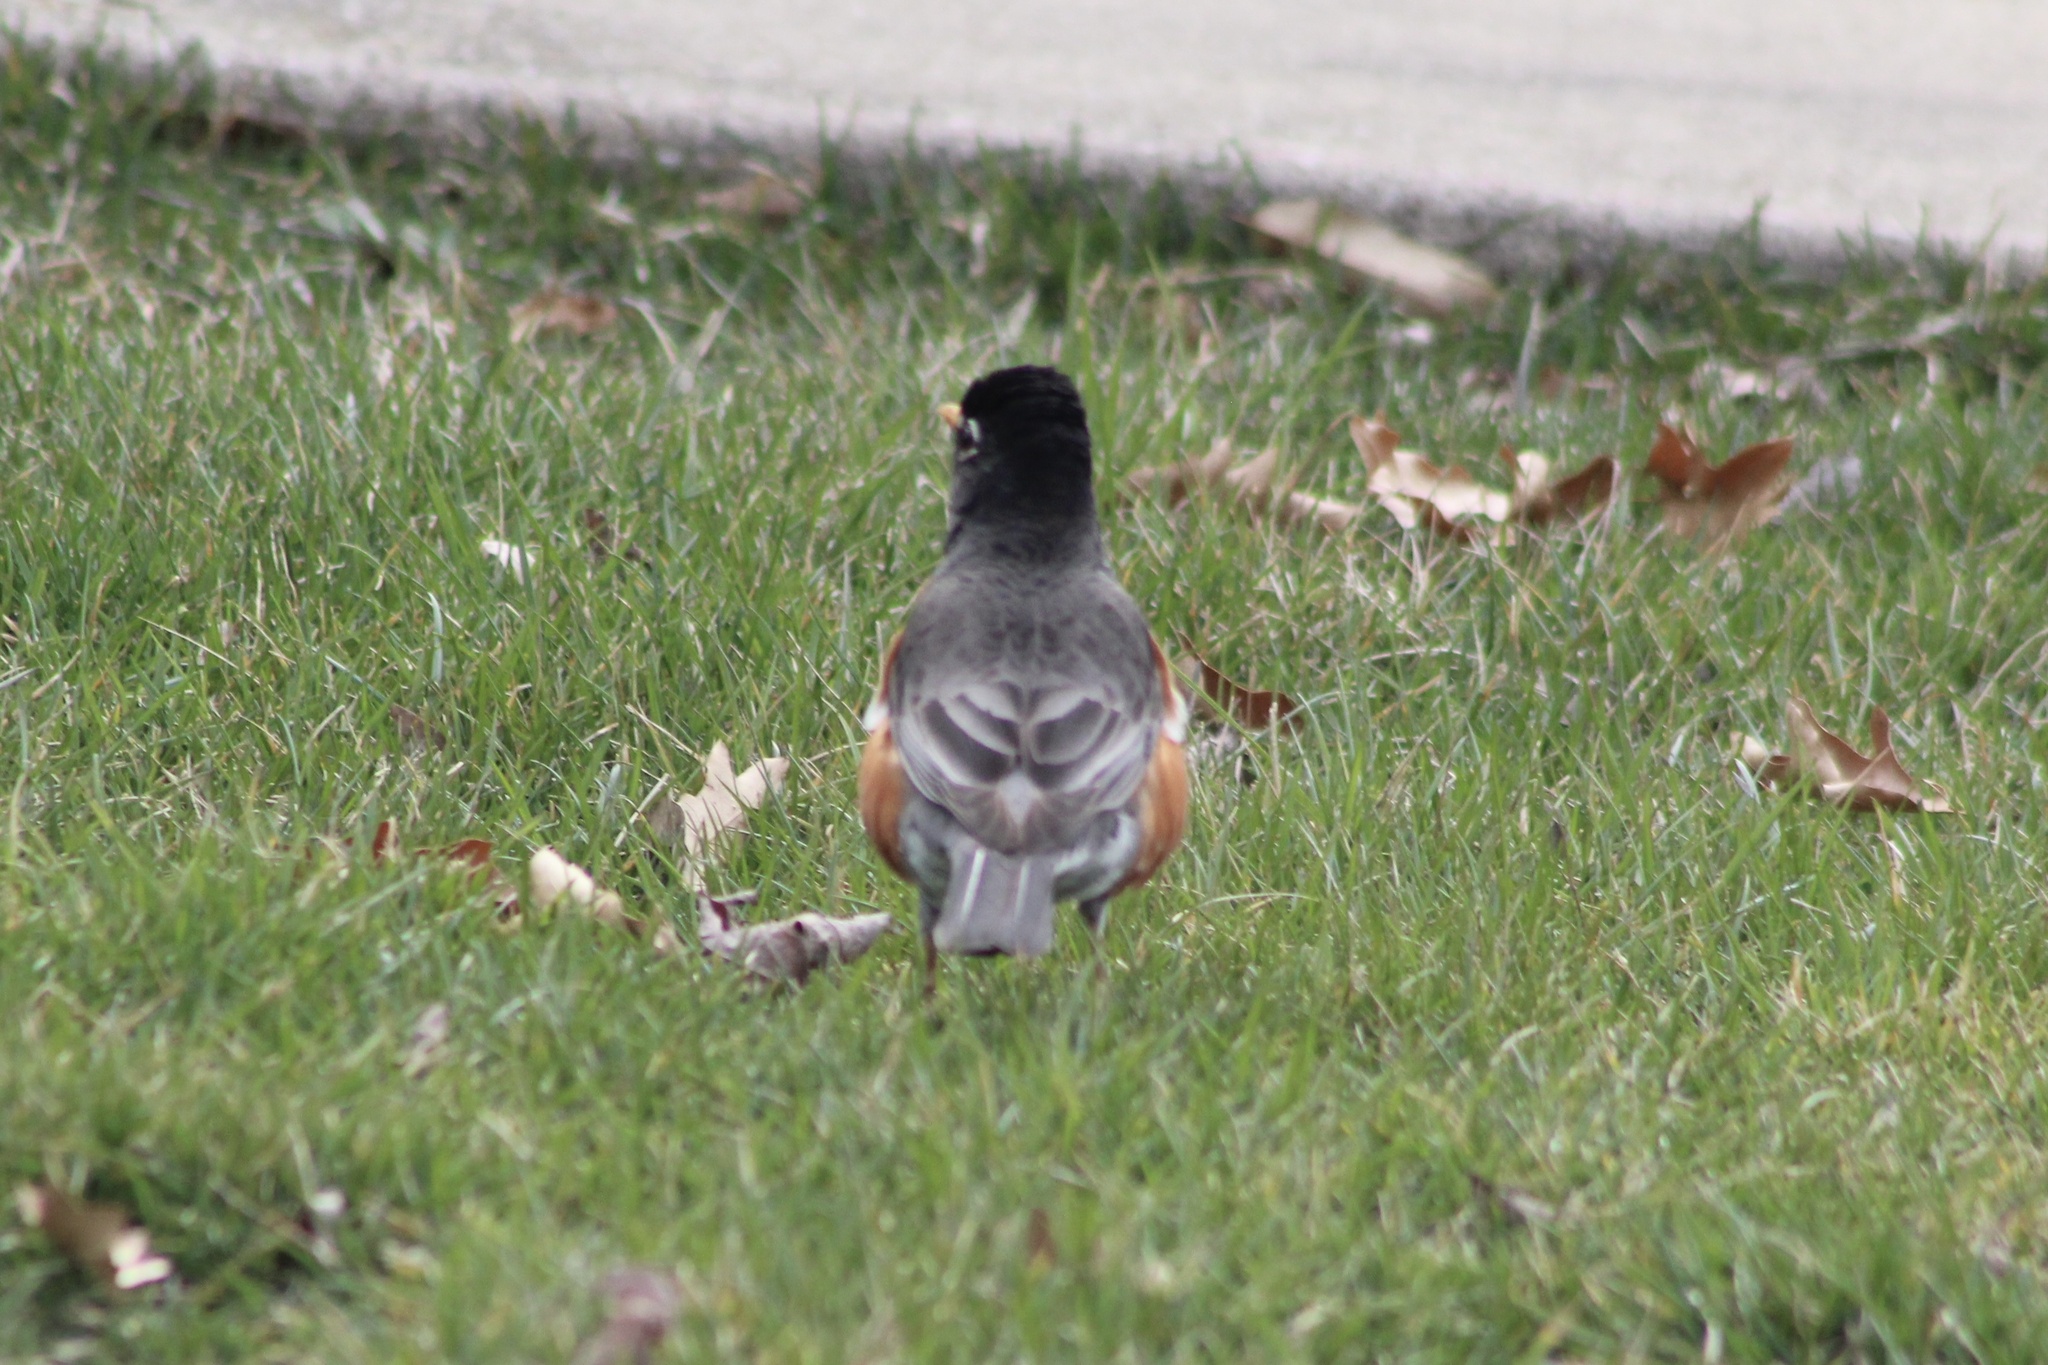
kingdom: Animalia
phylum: Chordata
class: Aves
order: Passeriformes
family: Turdidae
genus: Turdus
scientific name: Turdus migratorius
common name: American robin
